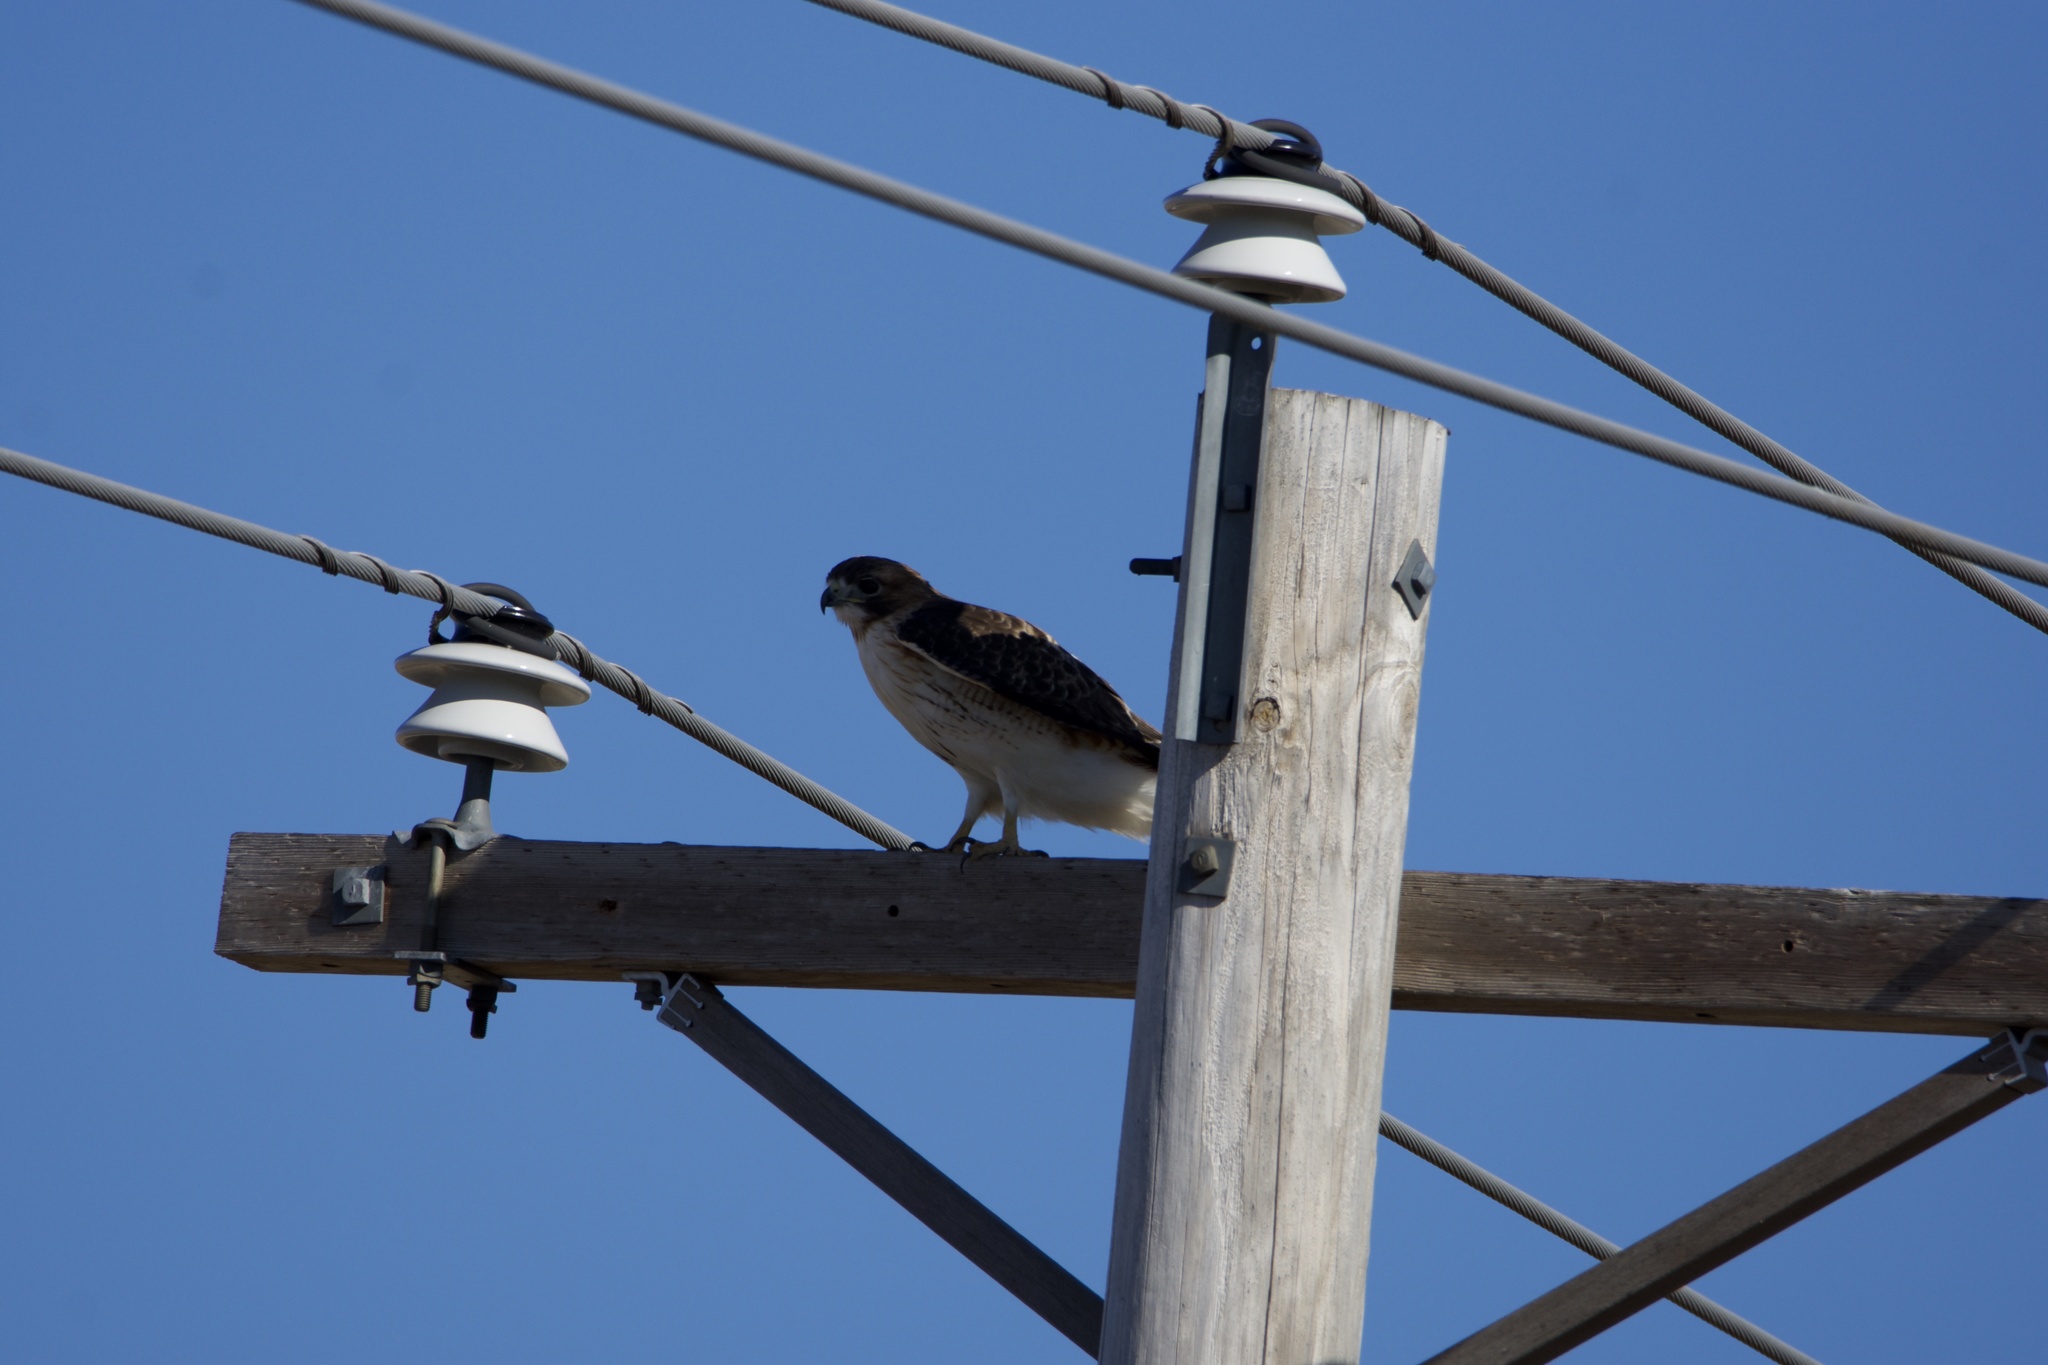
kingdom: Animalia
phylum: Chordata
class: Aves
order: Accipitriformes
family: Accipitridae
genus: Buteo
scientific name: Buteo jamaicensis
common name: Red-tailed hawk
